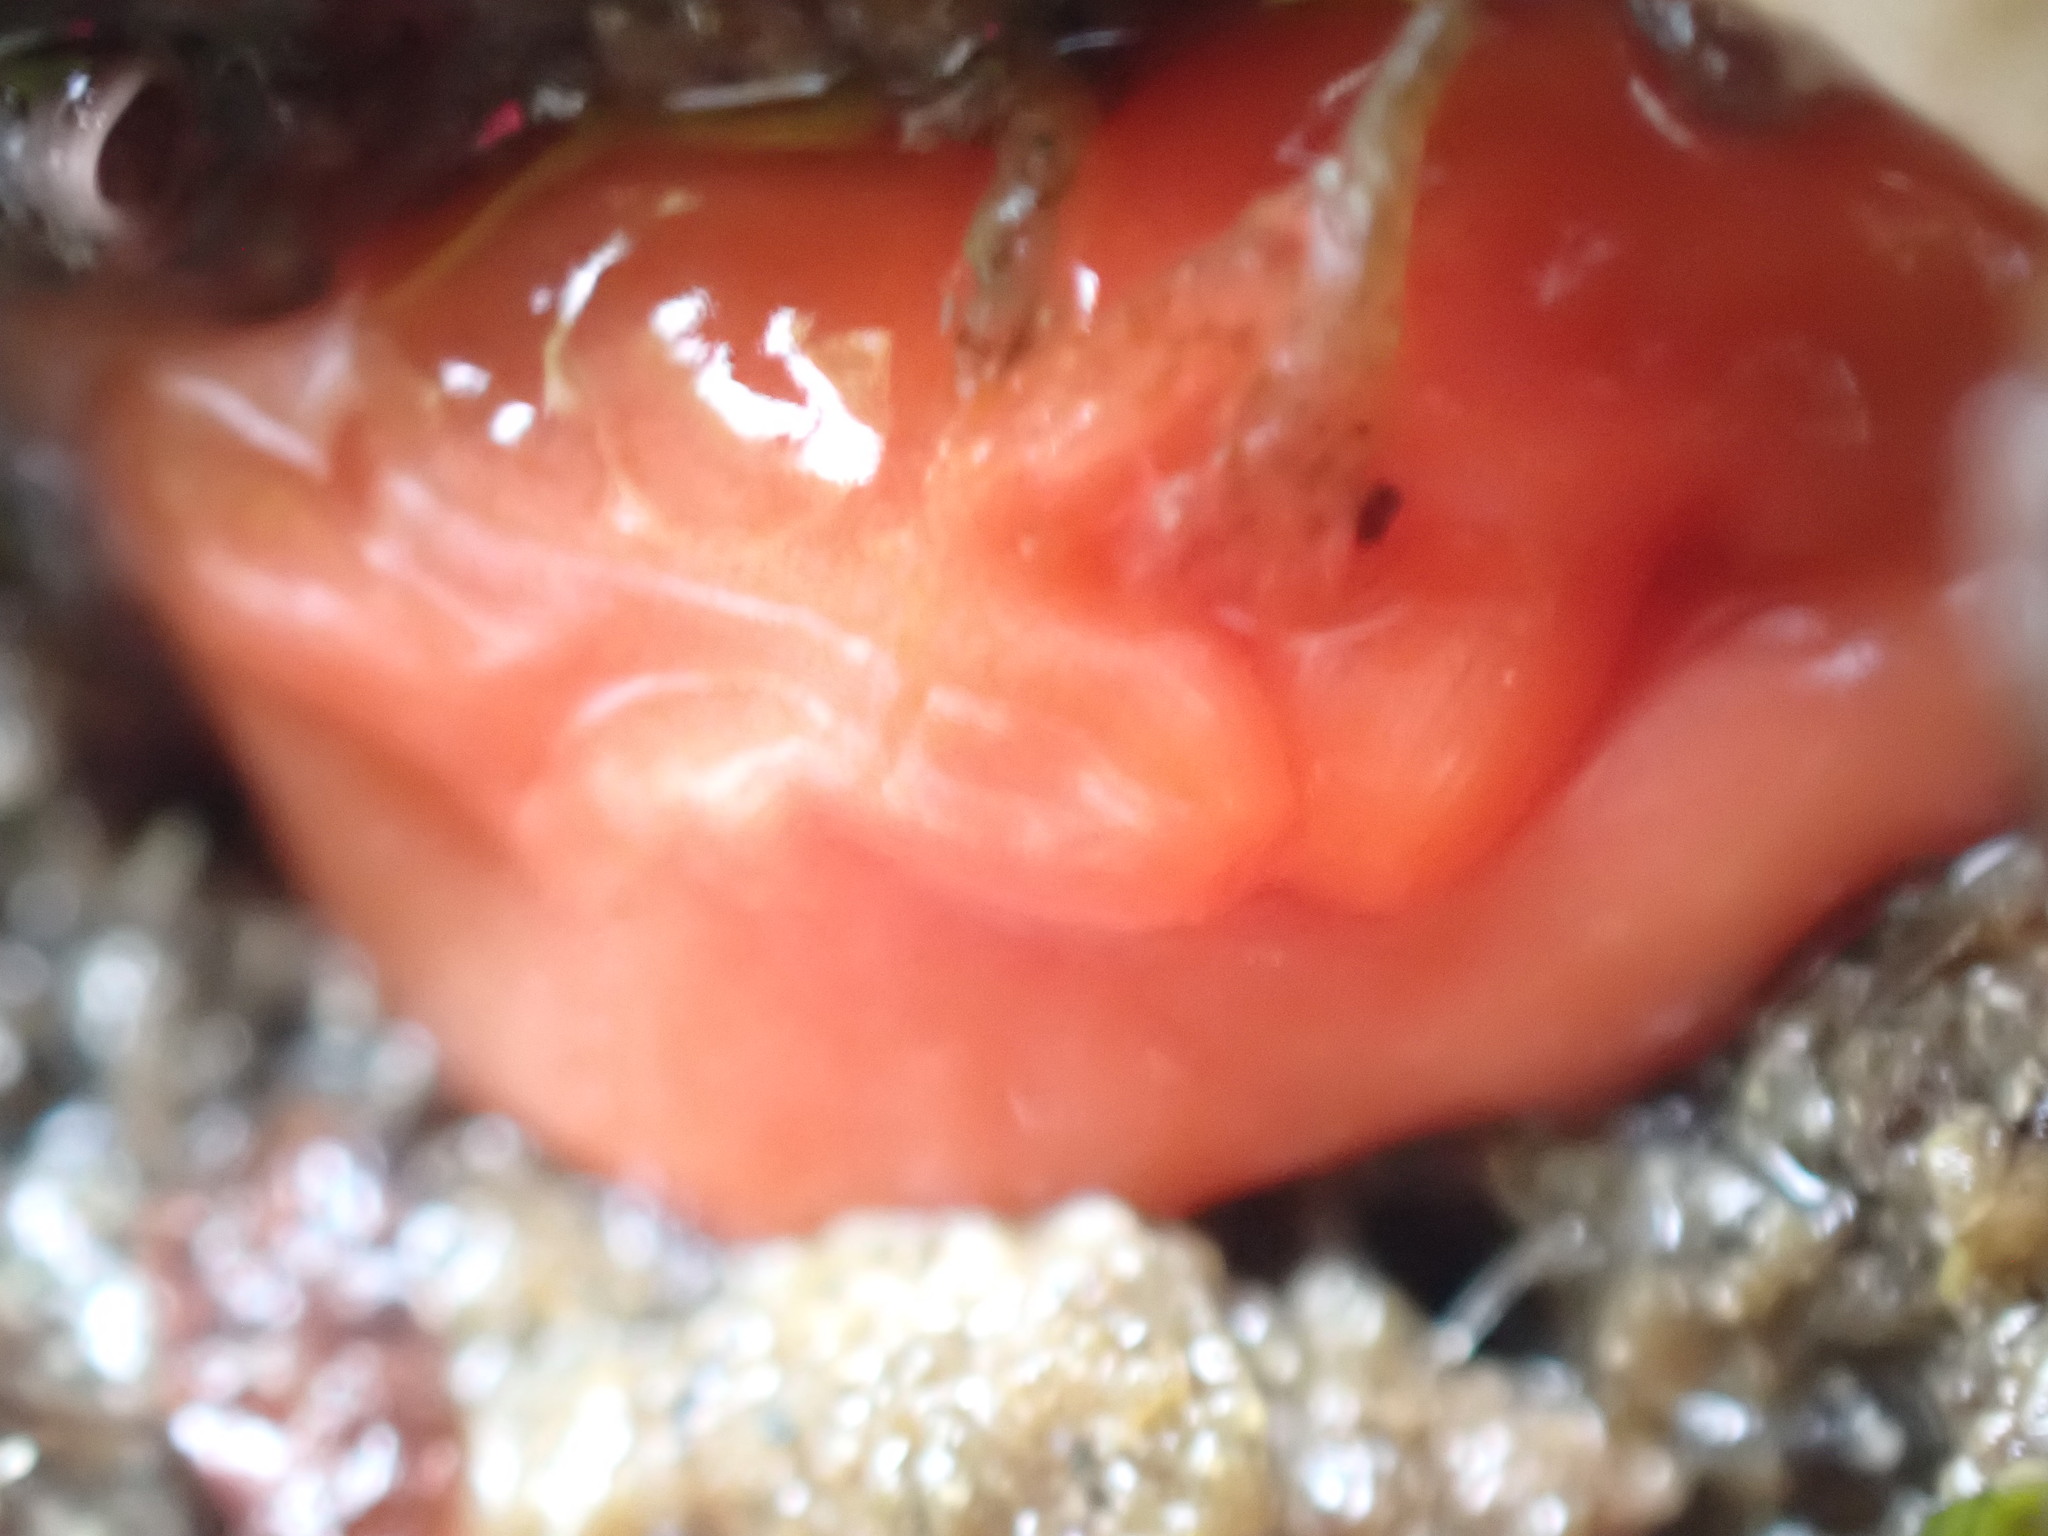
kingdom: Animalia
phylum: Chordata
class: Ascidiacea
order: Stolidobranchia
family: Styelidae
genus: Cnemidocarpa
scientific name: Cnemidocarpa finmarkiensis
